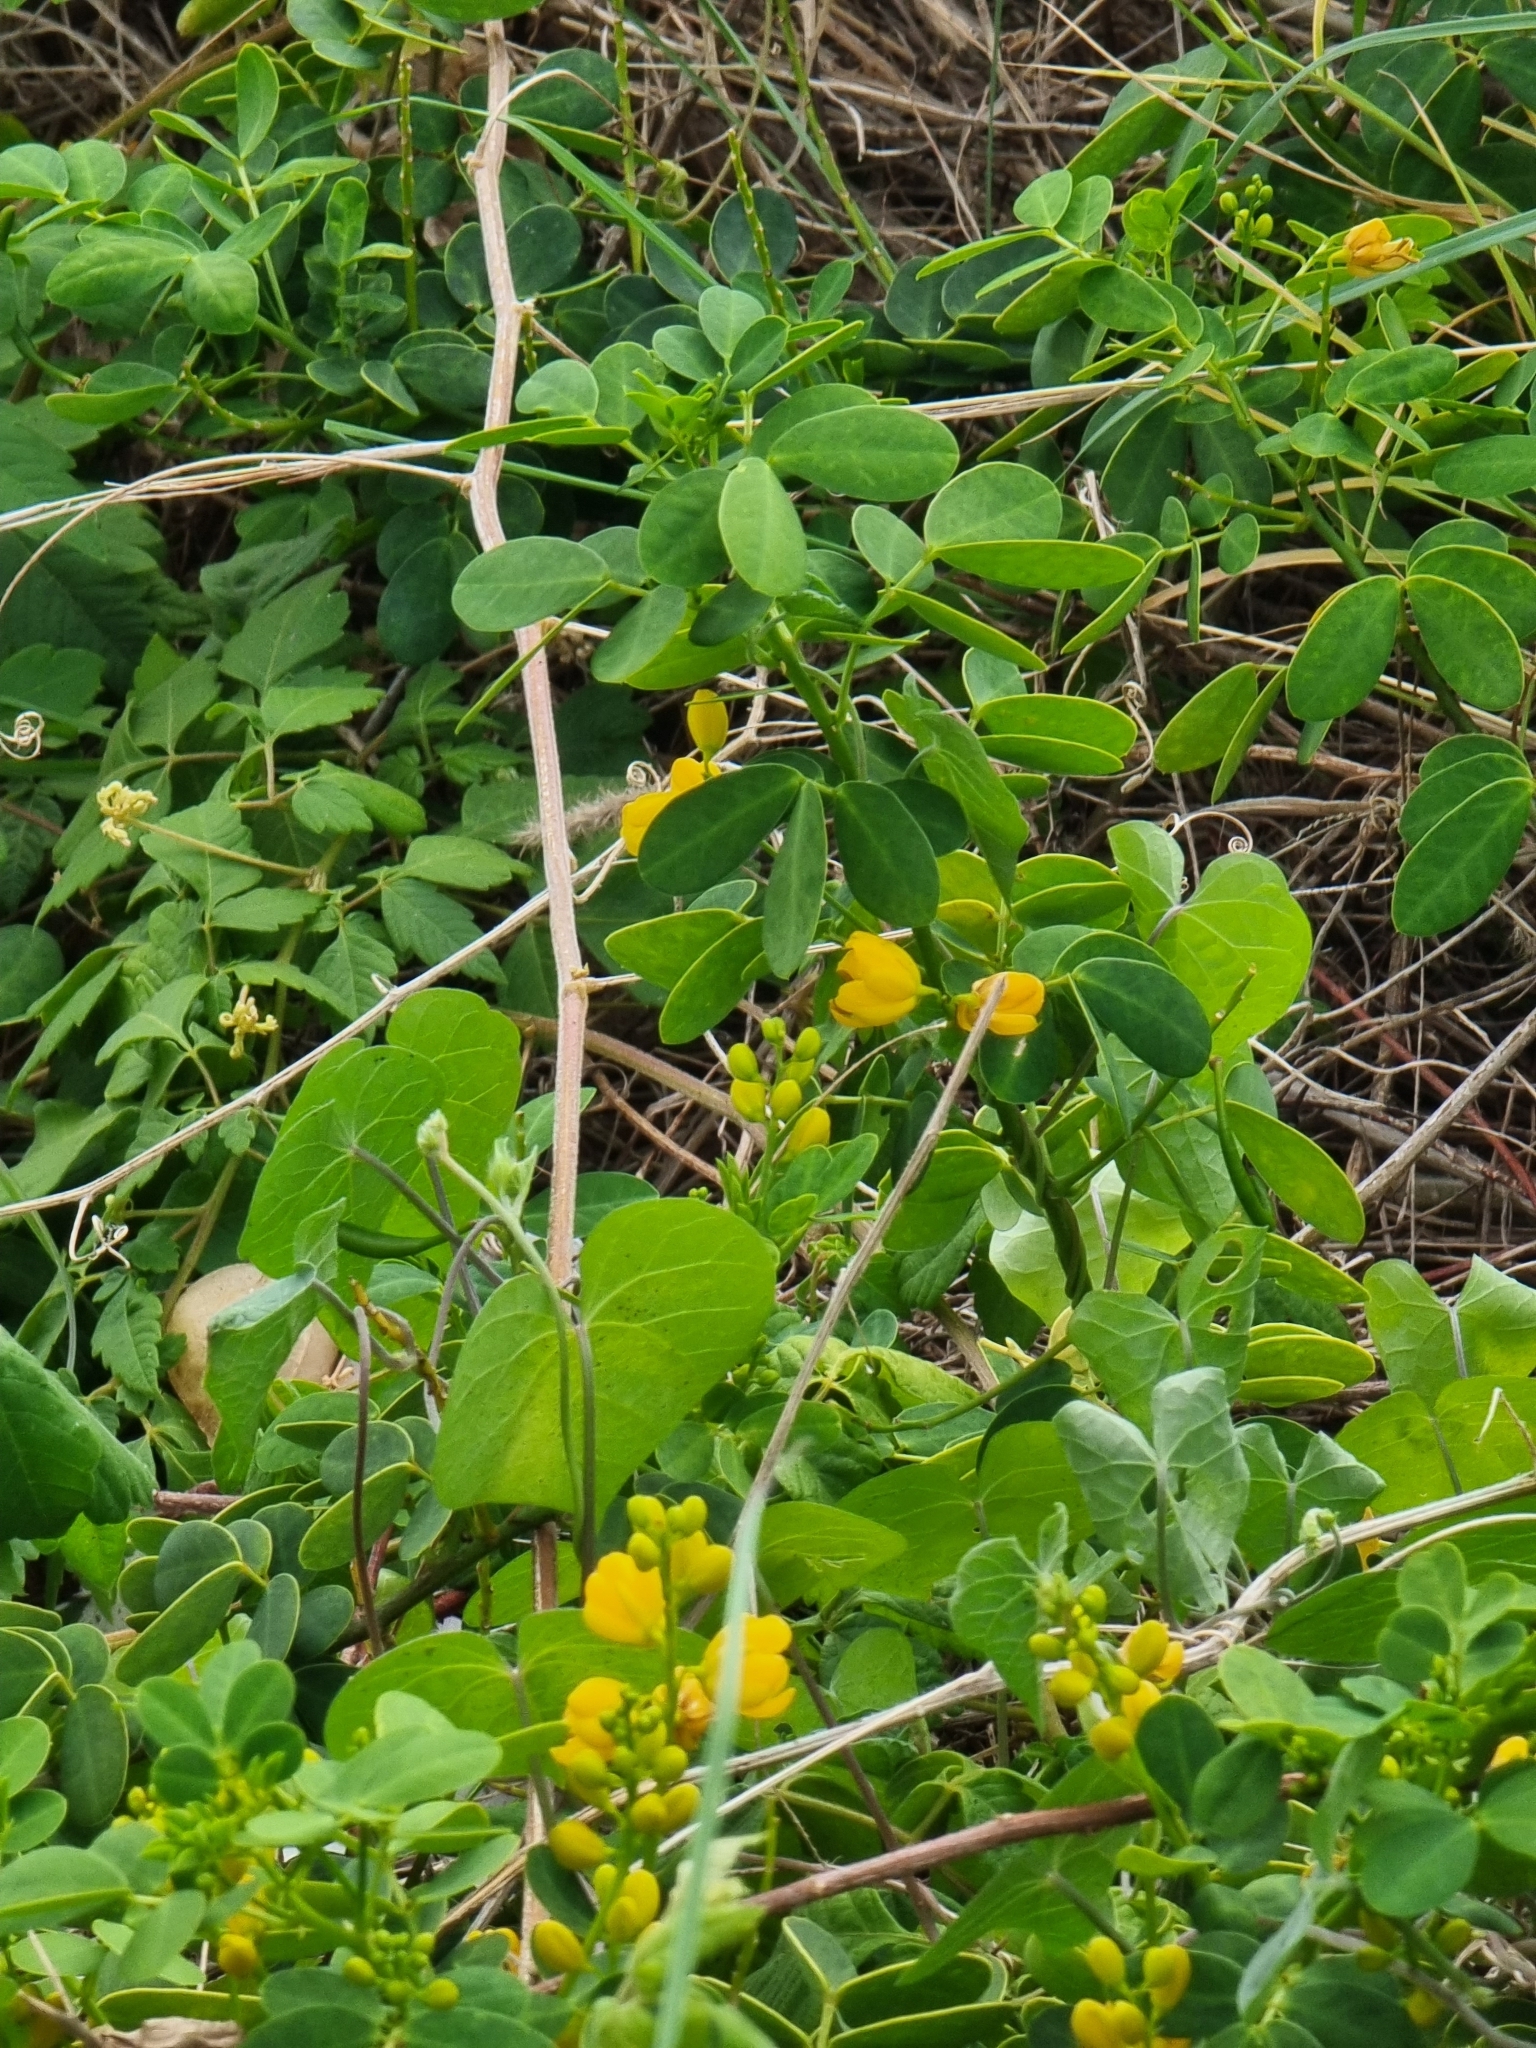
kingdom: Plantae
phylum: Tracheophyta
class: Magnoliopsida
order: Fabales
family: Fabaceae
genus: Senna
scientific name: Senna bicapsularis
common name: Christmasbush
